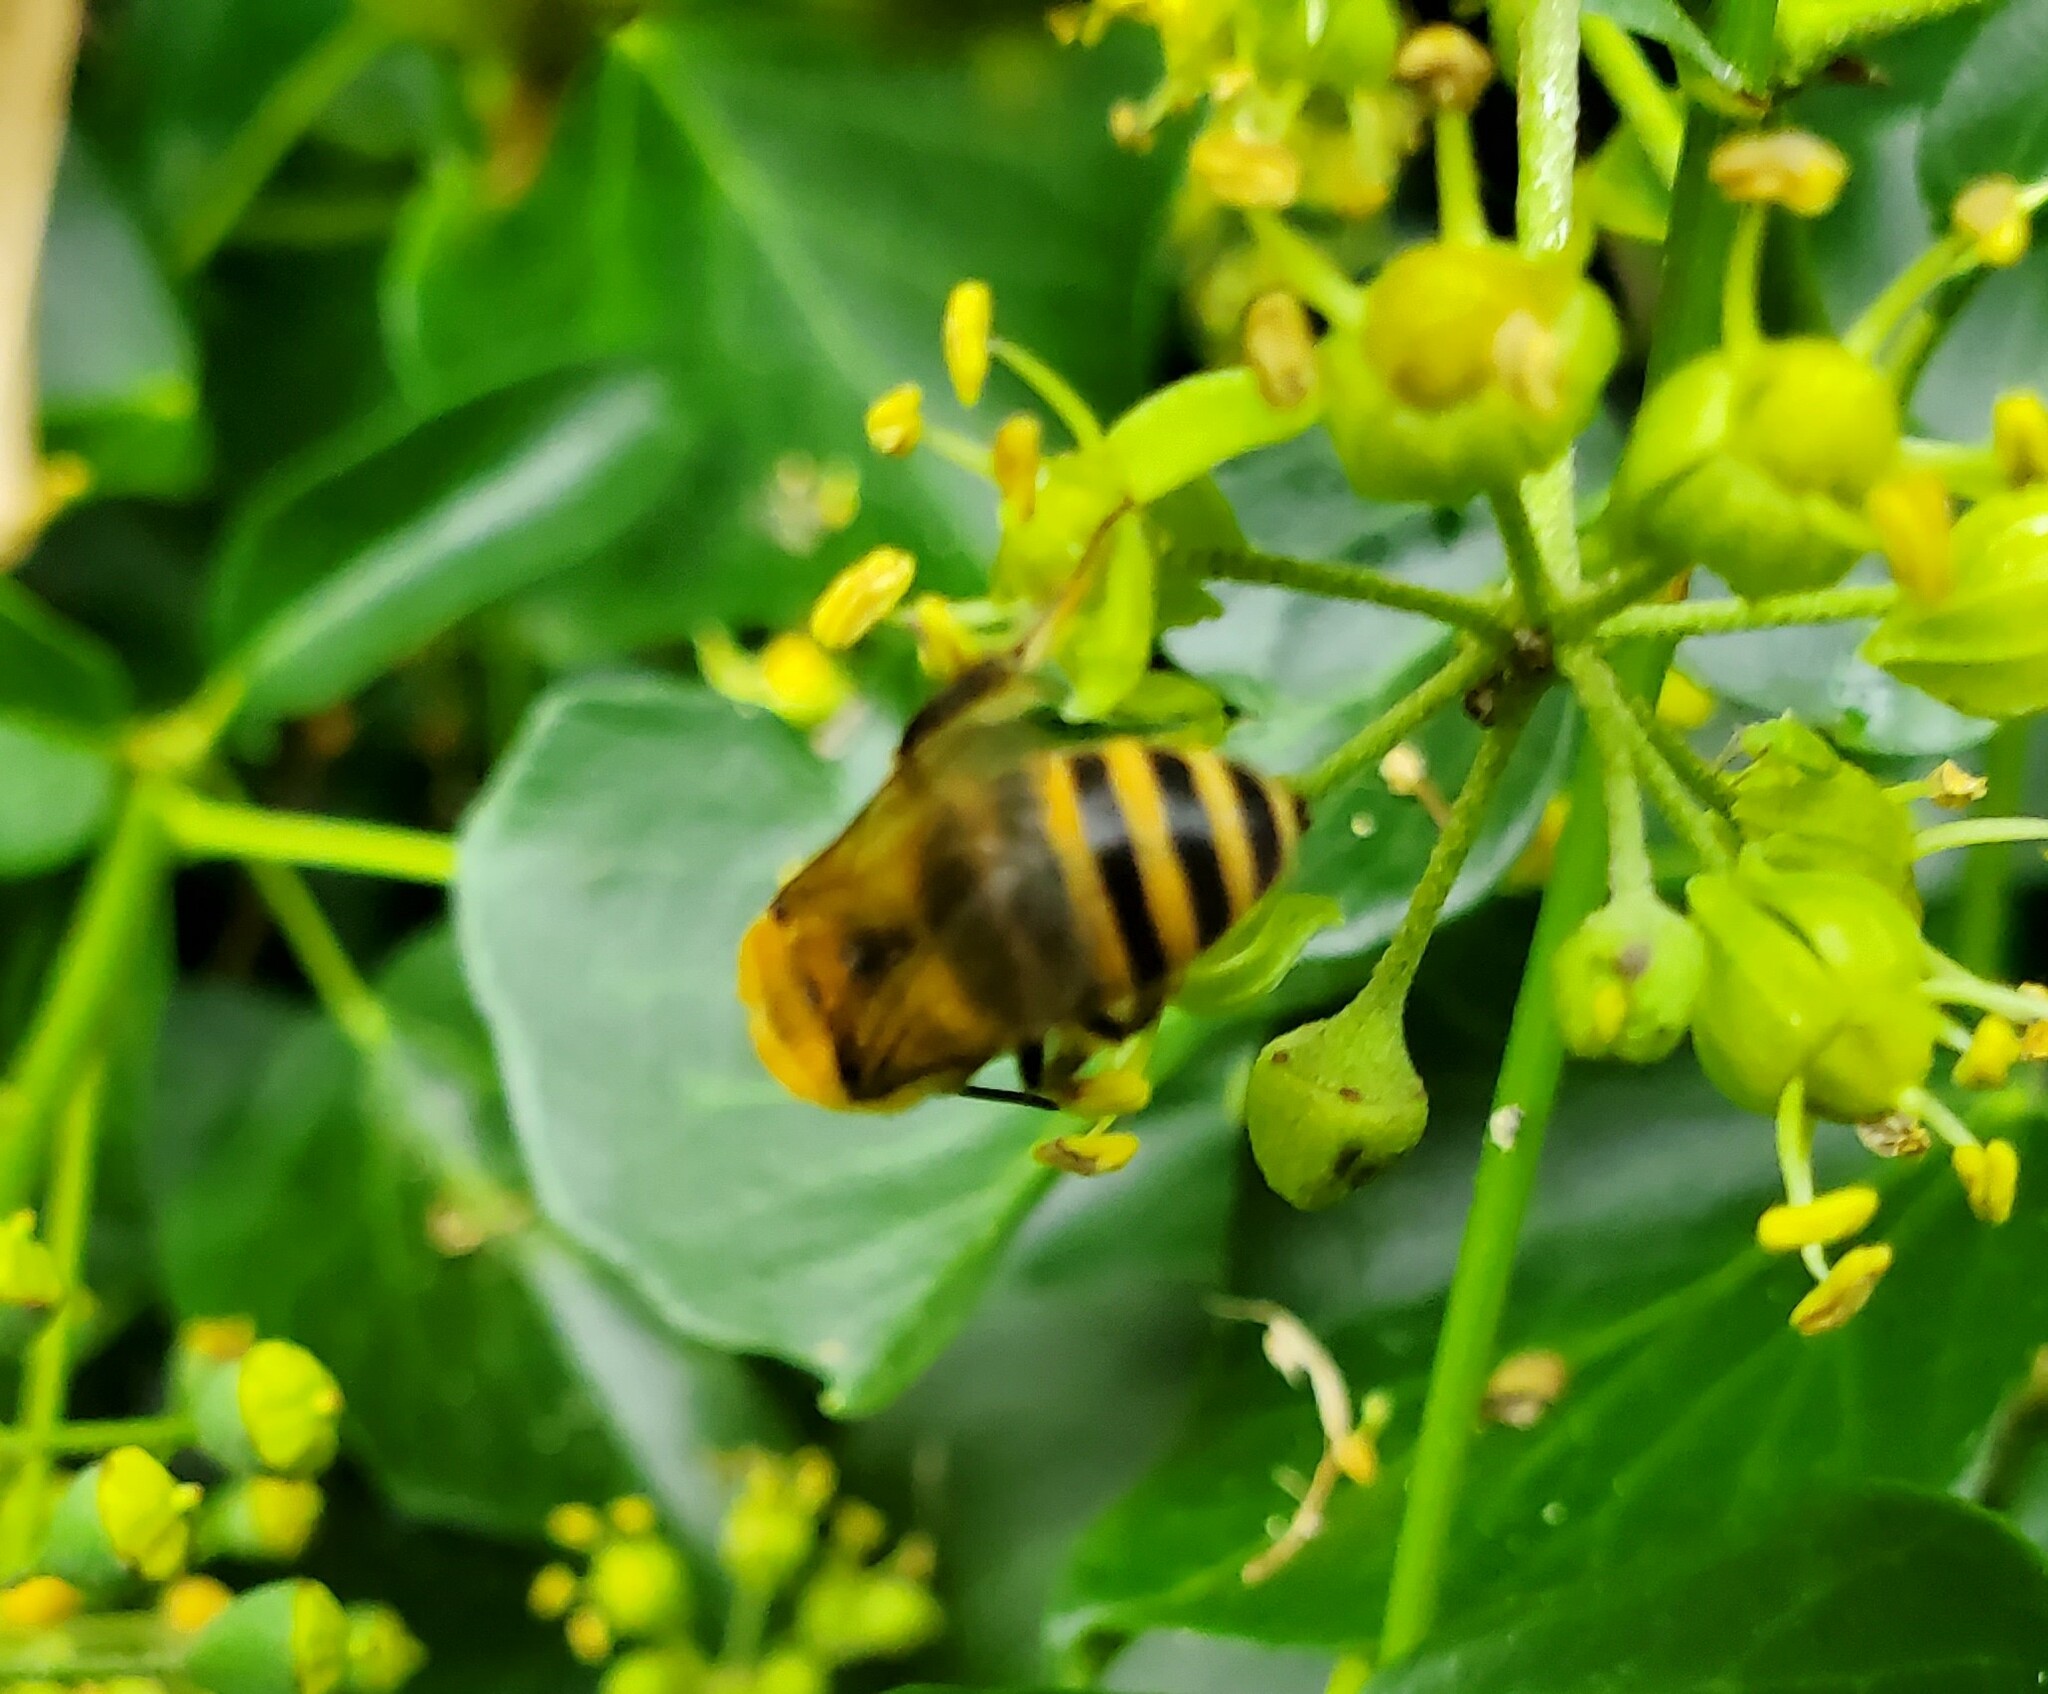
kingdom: Animalia
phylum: Arthropoda
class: Insecta
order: Hymenoptera
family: Colletidae
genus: Colletes
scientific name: Colletes hederae
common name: Ivy bee
